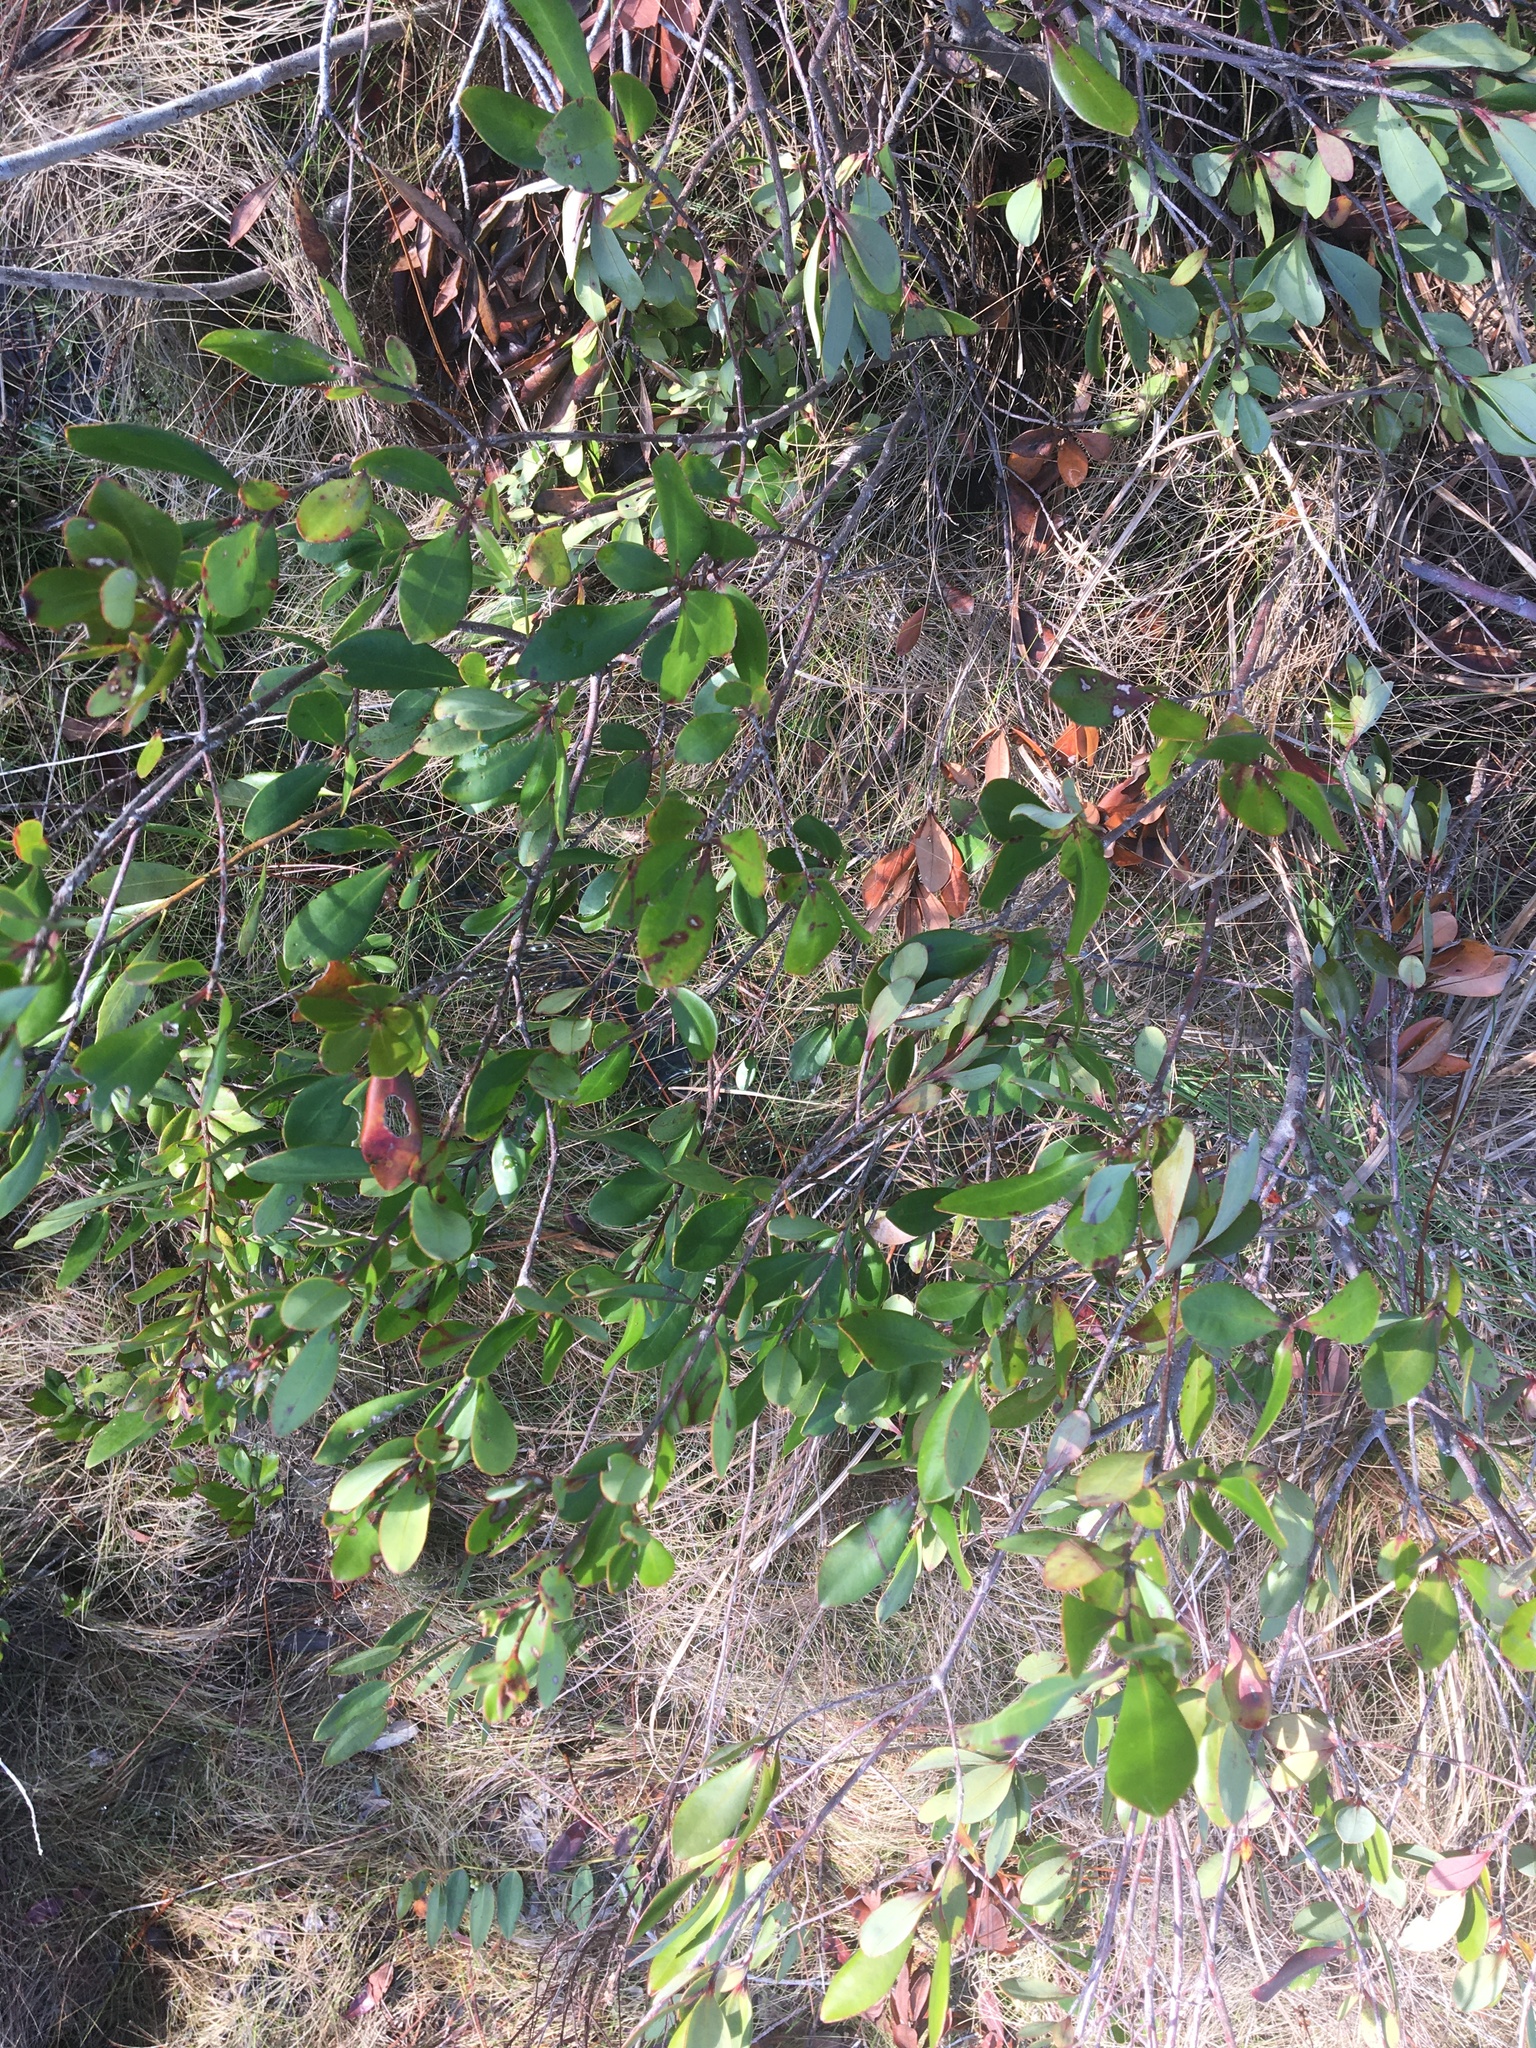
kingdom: Plantae
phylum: Tracheophyta
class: Magnoliopsida
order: Ericales
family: Cyrillaceae
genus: Cliftonia
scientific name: Cliftonia monophylla
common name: Titi
